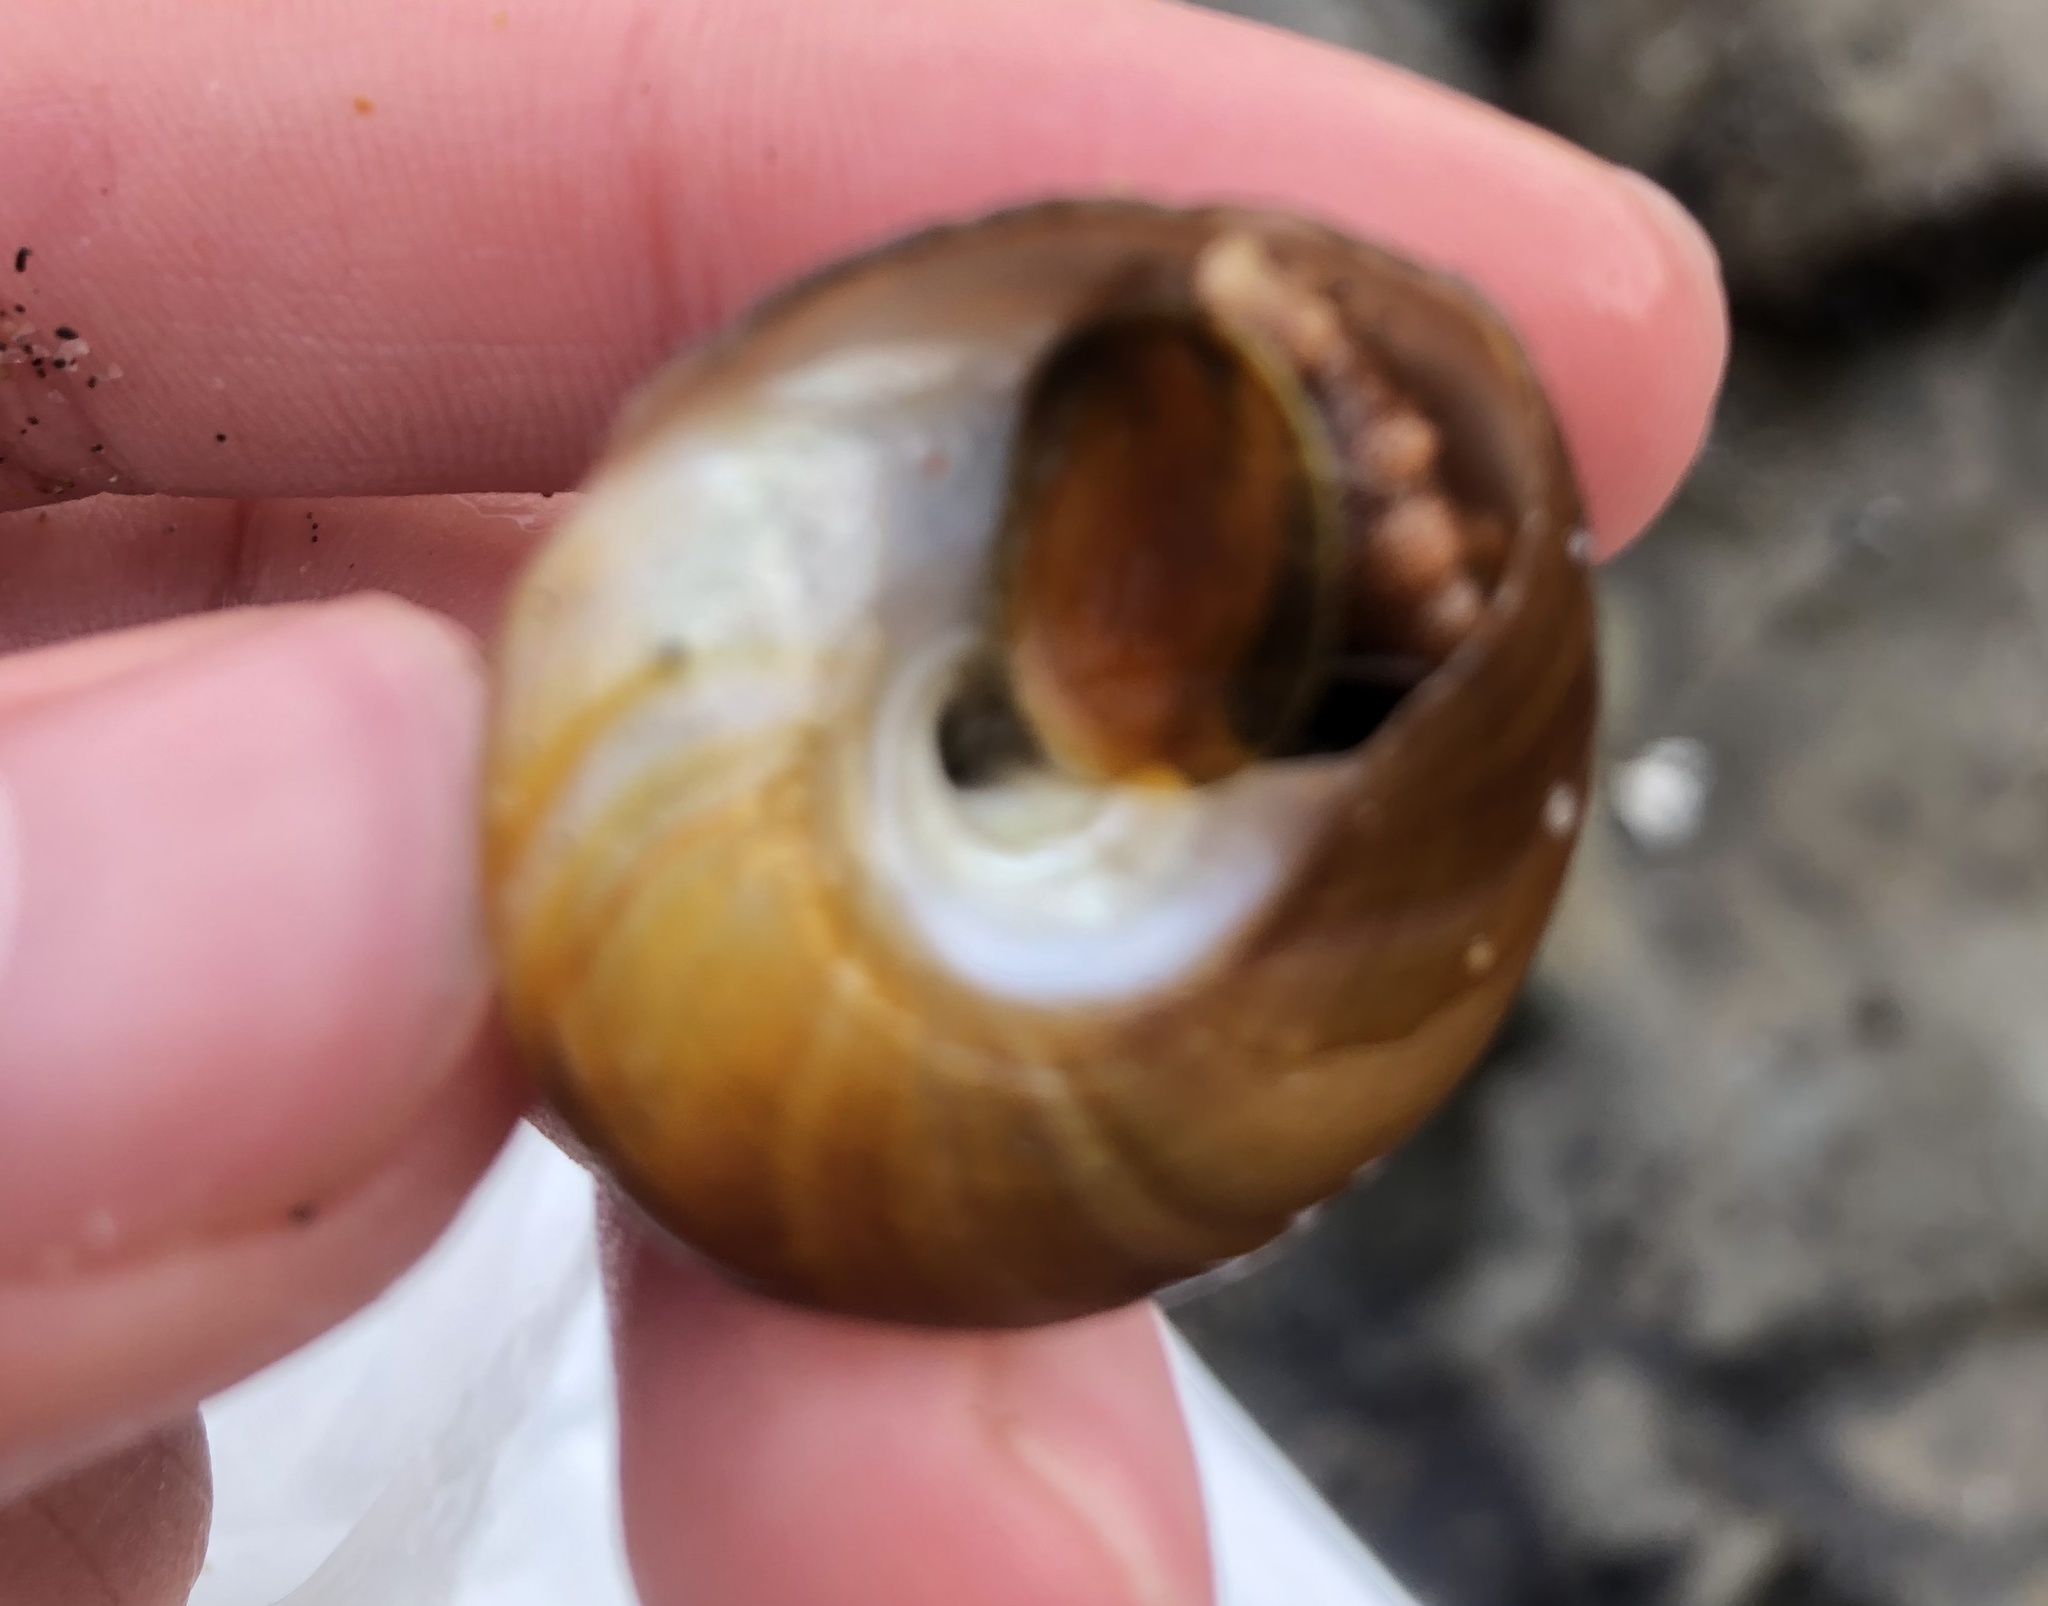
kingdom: Animalia
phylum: Mollusca
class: Gastropoda
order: Trochida
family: Tegulidae
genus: Tegula
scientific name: Tegula montereyi
